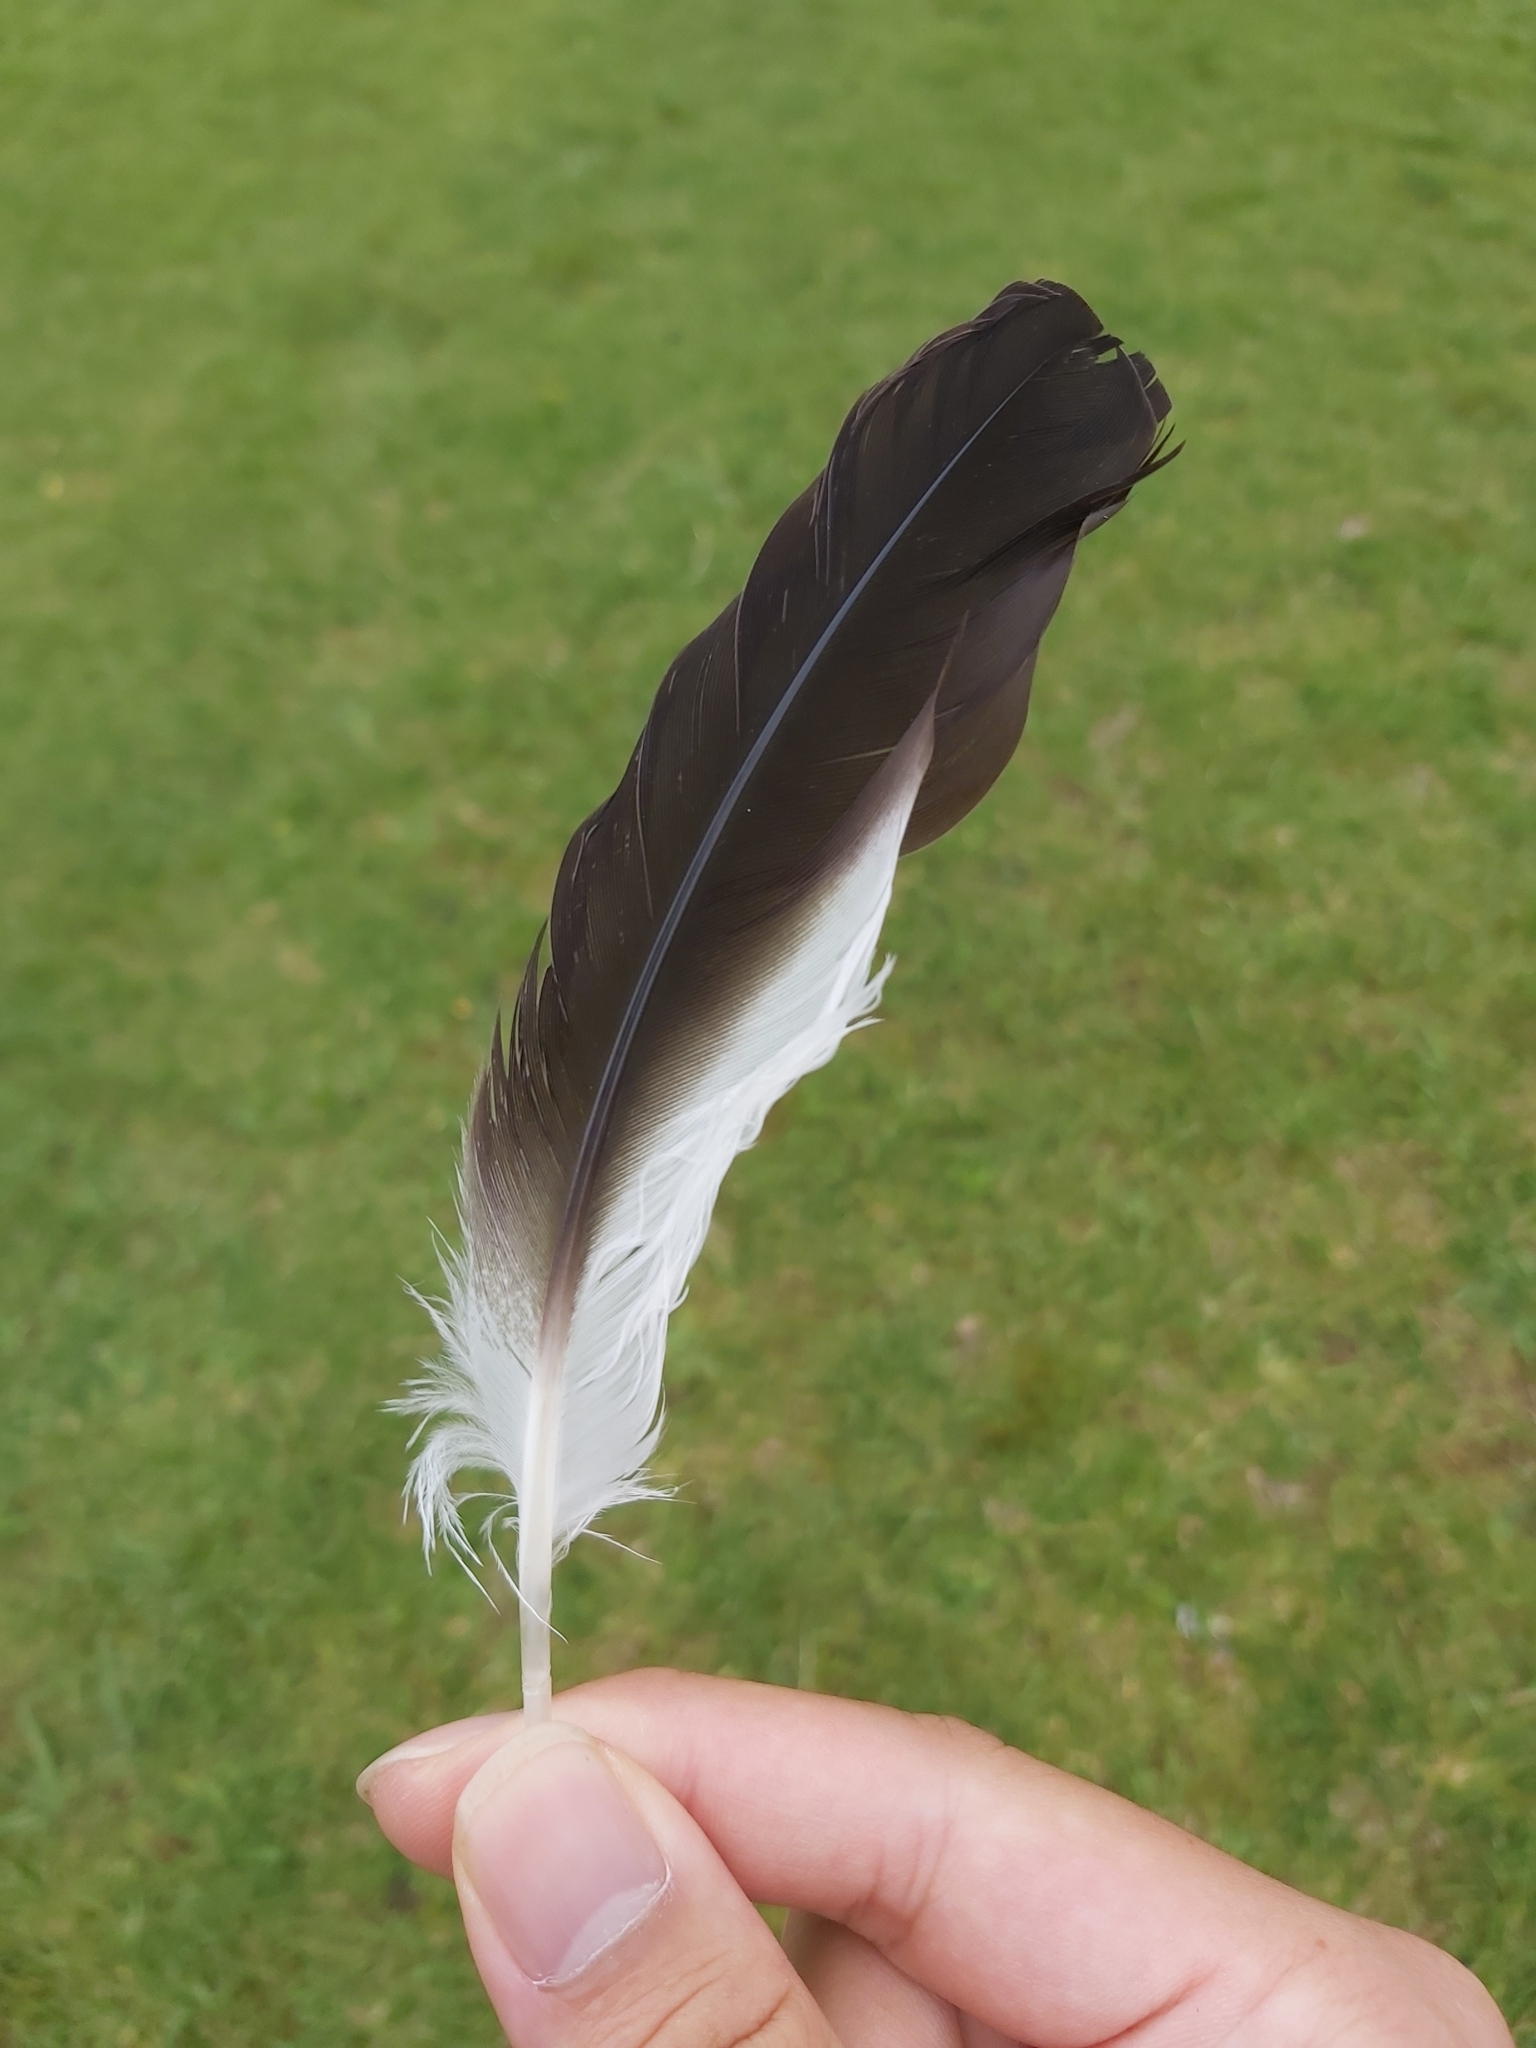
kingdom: Animalia
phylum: Chordata
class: Aves
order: Charadriiformes
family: Charadriidae
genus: Vanellus
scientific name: Vanellus miles
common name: Masked lapwing
